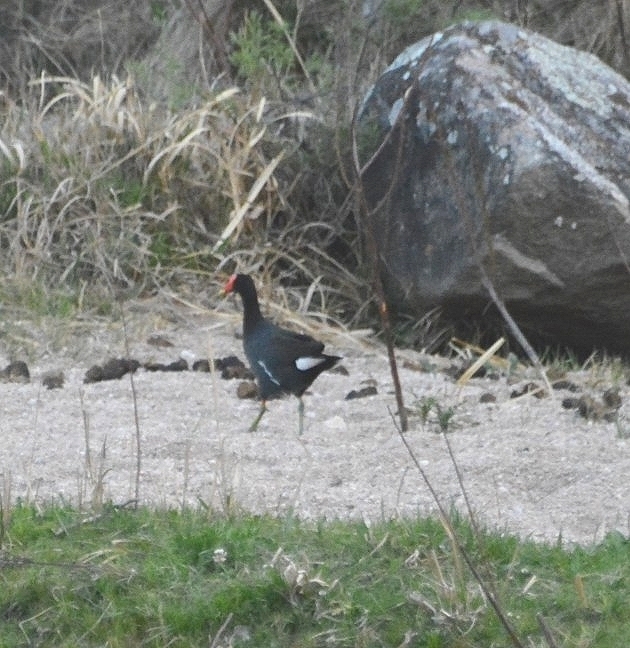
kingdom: Animalia
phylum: Chordata
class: Aves
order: Gruiformes
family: Rallidae
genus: Gallinula
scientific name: Gallinula chloropus
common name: Common moorhen
